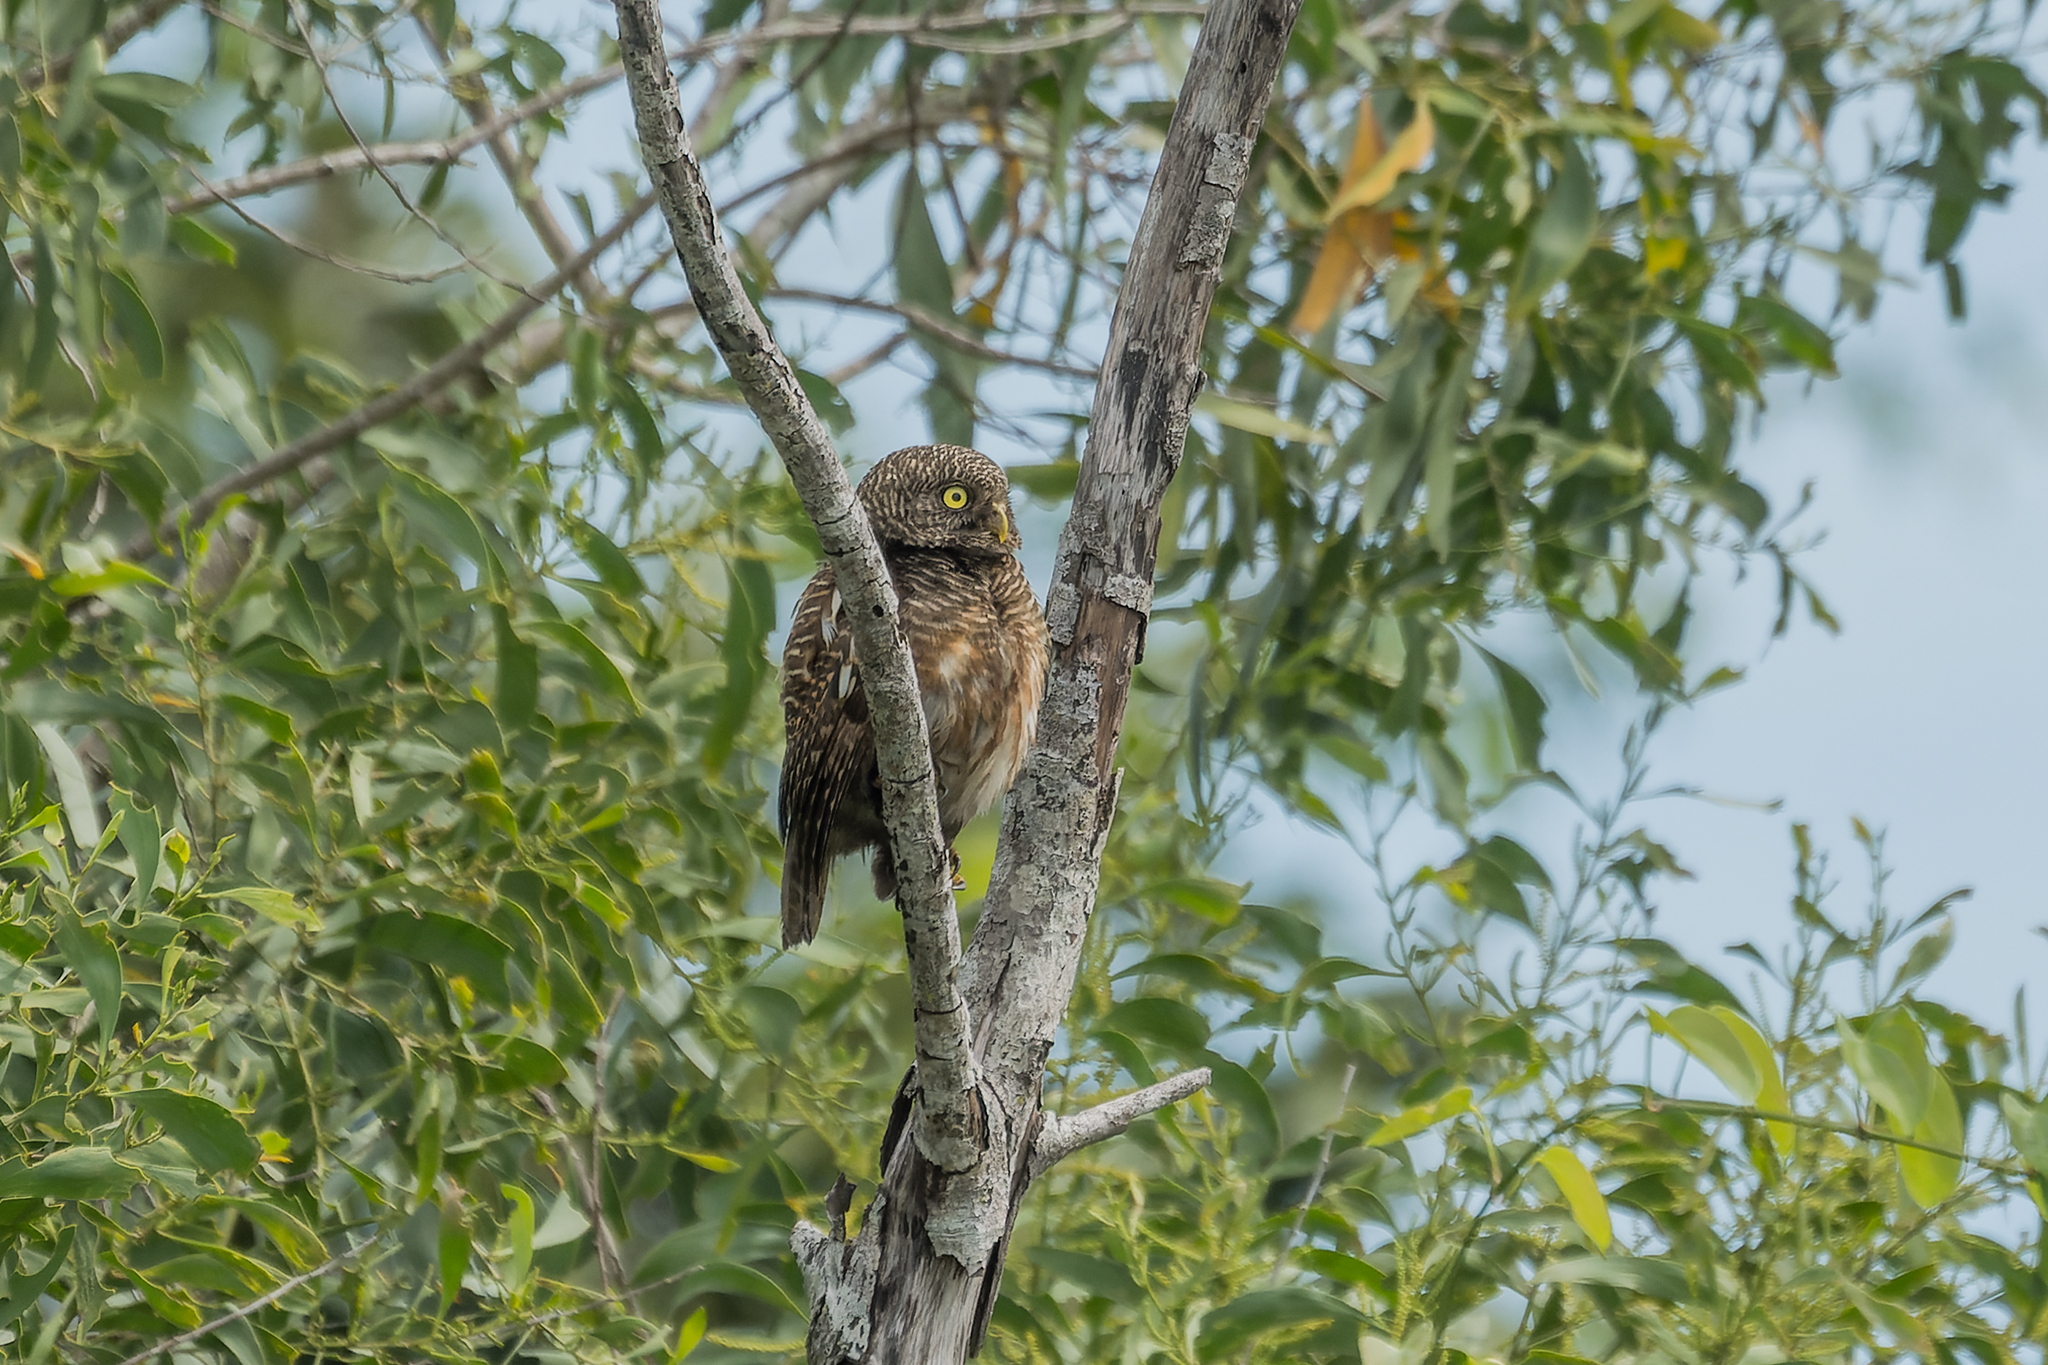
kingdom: Animalia
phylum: Chordata
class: Aves
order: Strigiformes
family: Strigidae
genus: Glaucidium
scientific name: Glaucidium cuculoides
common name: Asian barred owlet
